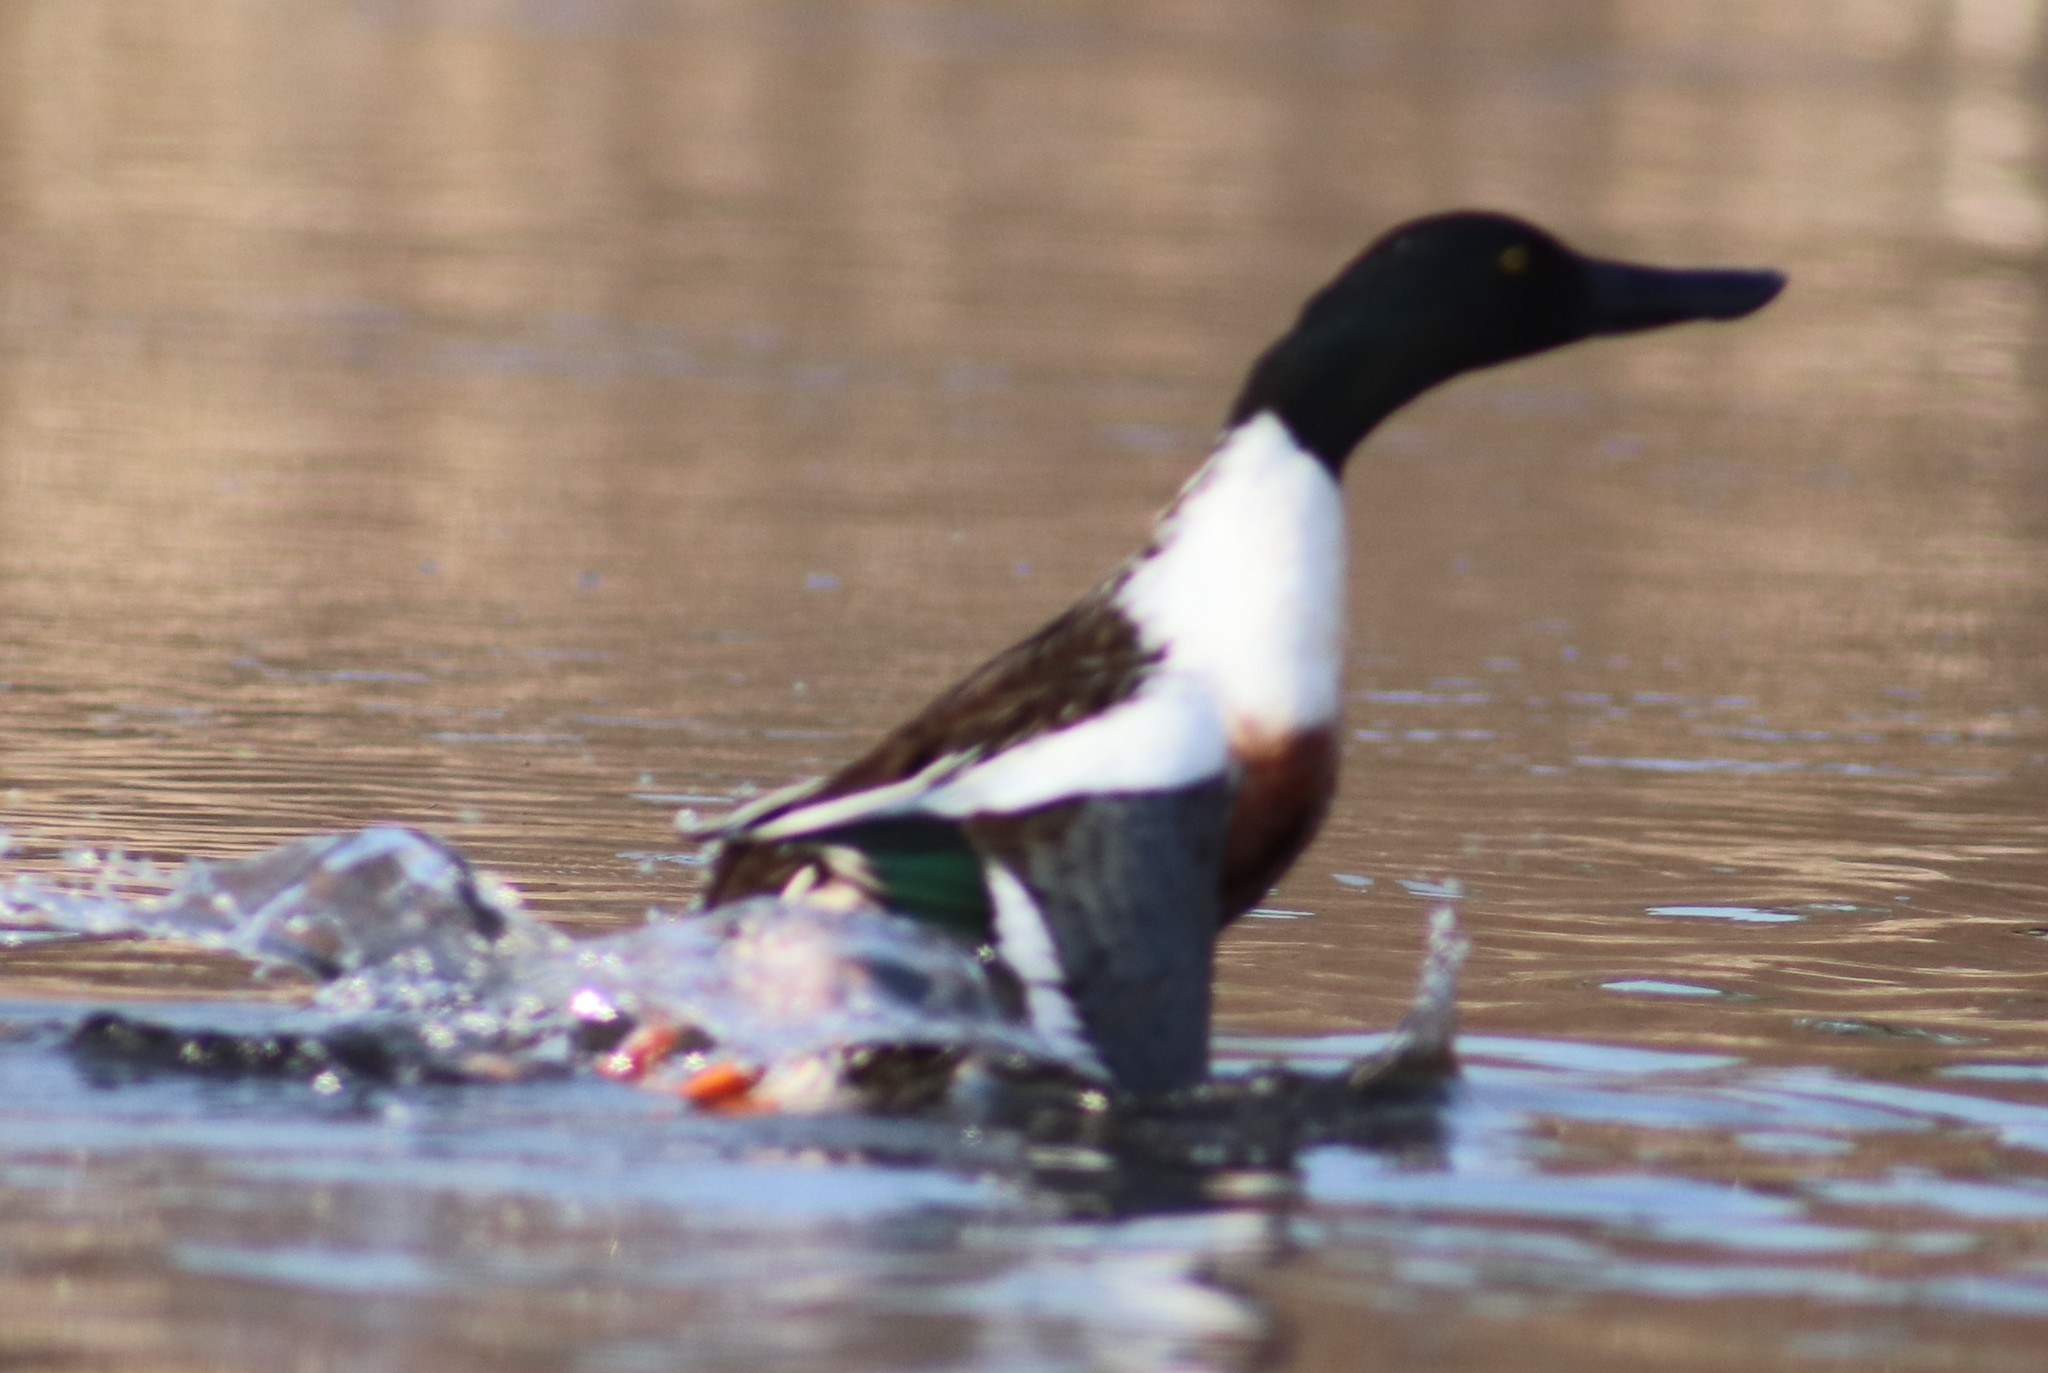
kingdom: Animalia
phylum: Chordata
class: Aves
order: Anseriformes
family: Anatidae
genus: Spatula
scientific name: Spatula clypeata
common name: Northern shoveler
